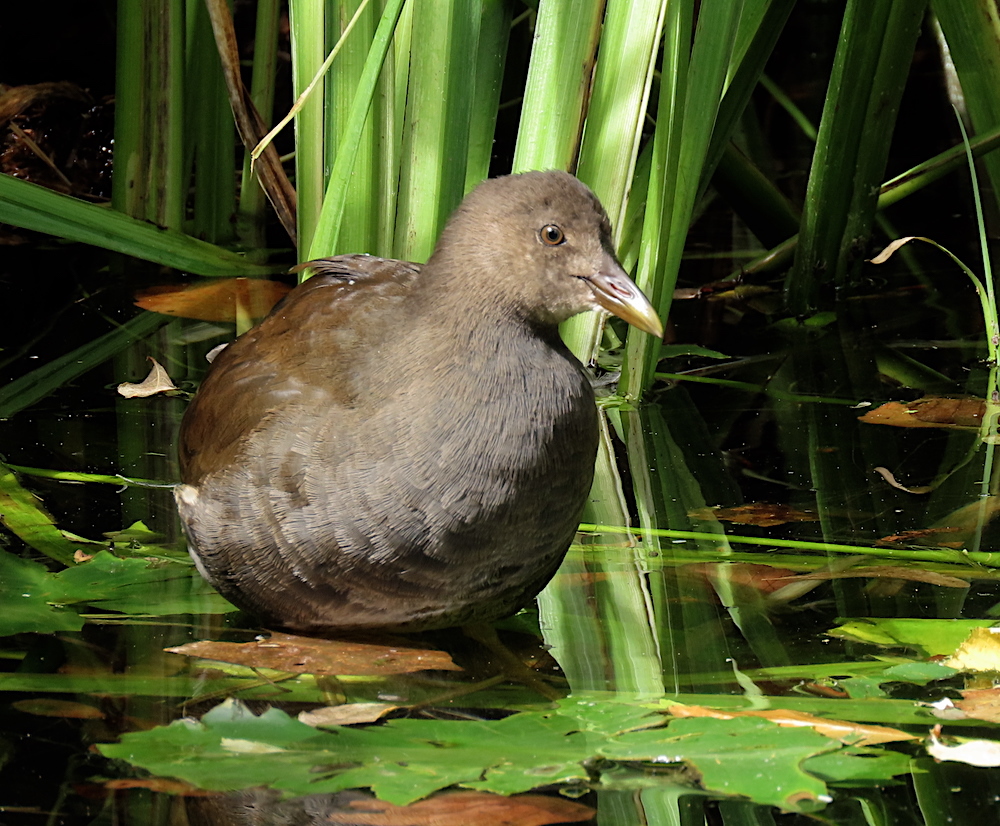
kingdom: Animalia
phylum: Chordata
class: Aves
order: Gruiformes
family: Rallidae
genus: Gallinula
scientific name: Gallinula chloropus
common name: Common moorhen
